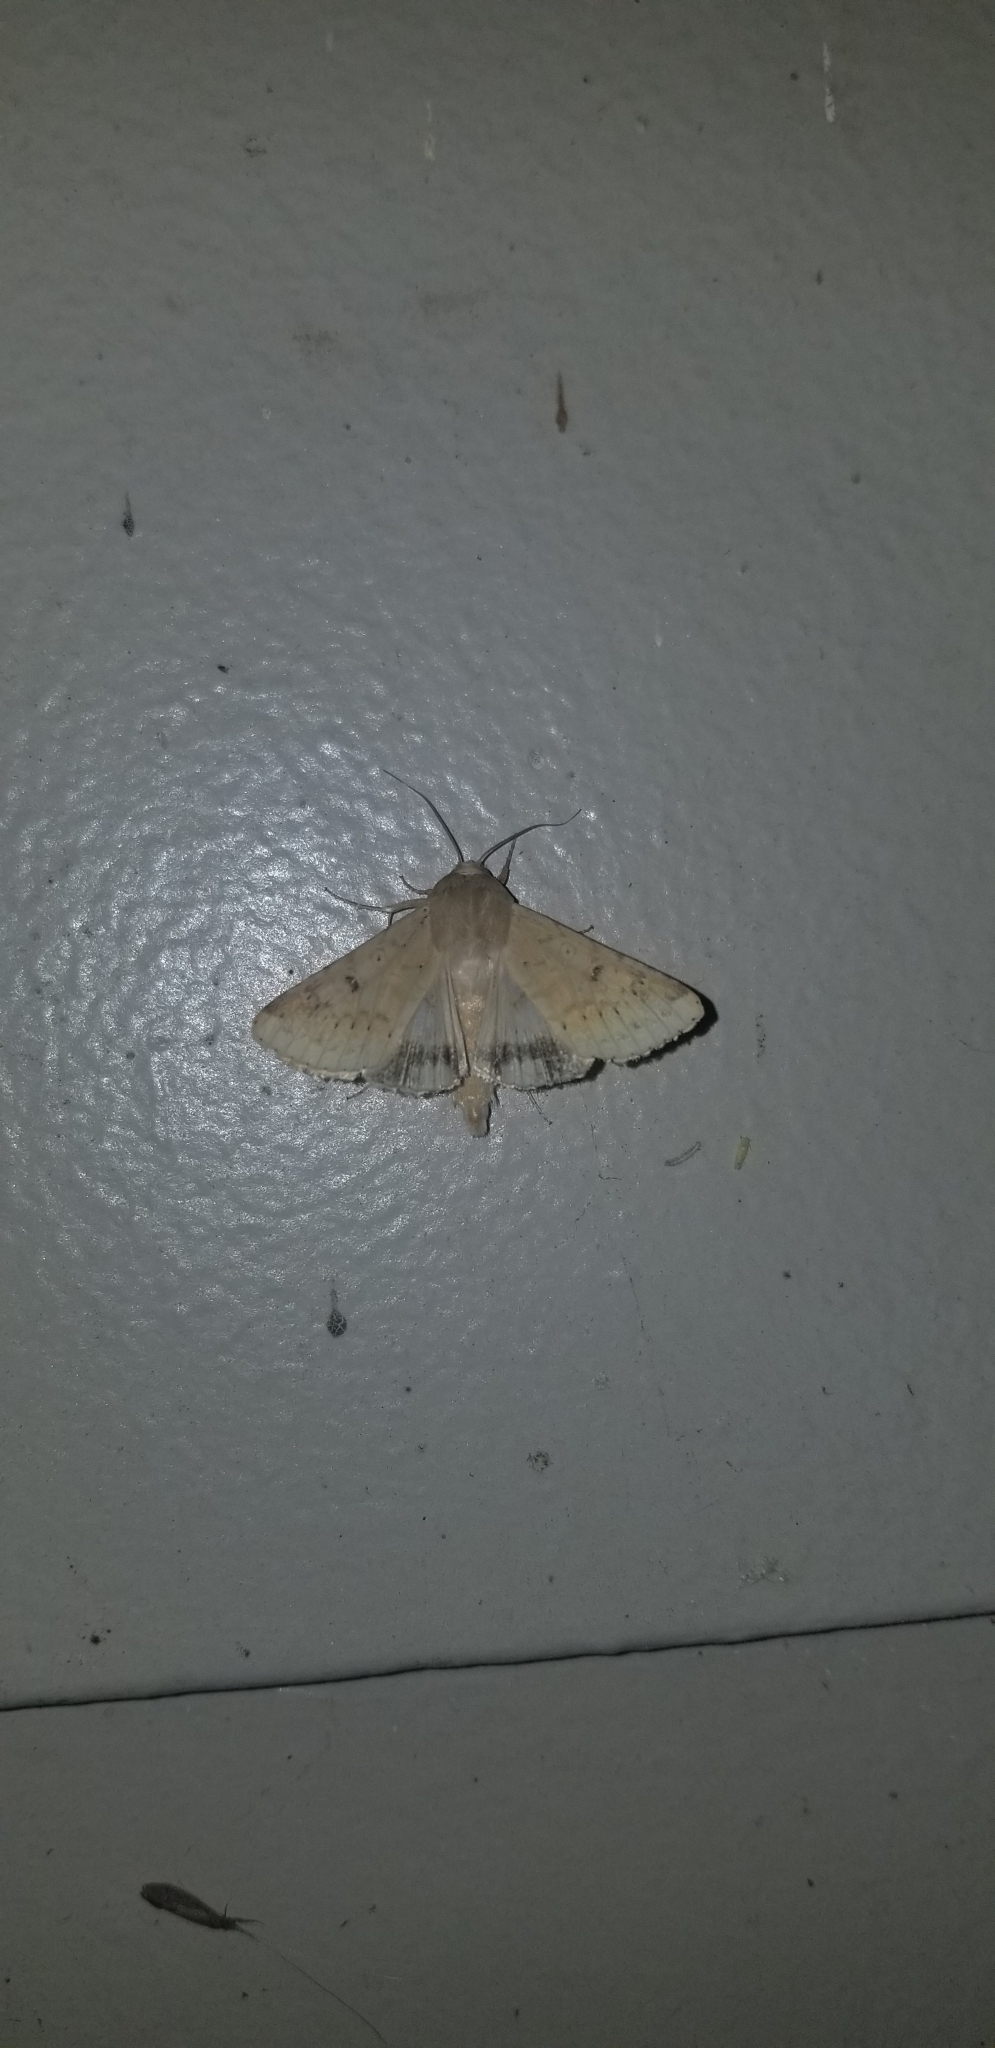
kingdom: Animalia
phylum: Arthropoda
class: Insecta
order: Lepidoptera
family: Noctuidae
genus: Helicoverpa
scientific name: Helicoverpa zea
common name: Bollworm
